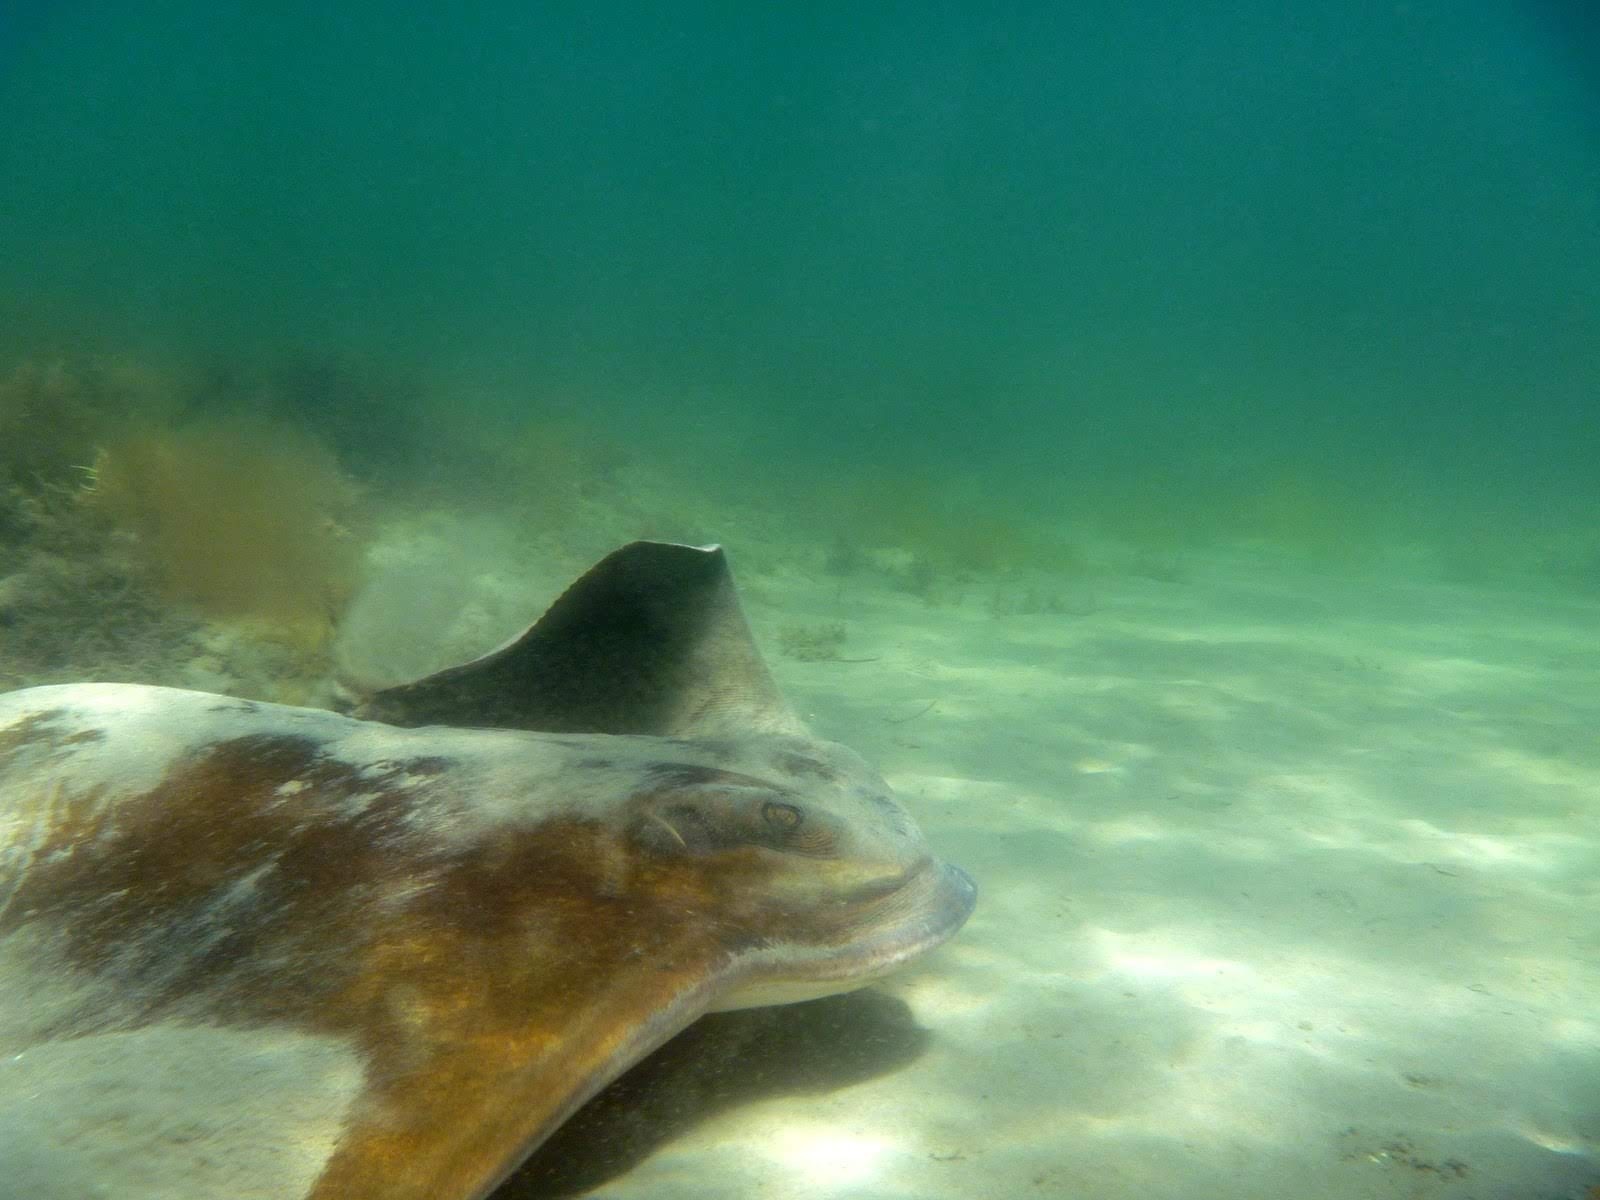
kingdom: Animalia
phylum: Chordata
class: Elasmobranchii
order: Myliobatiformes
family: Myliobatidae
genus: Myliobatis
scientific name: Myliobatis tenuicaudatus
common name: Eagle ray
